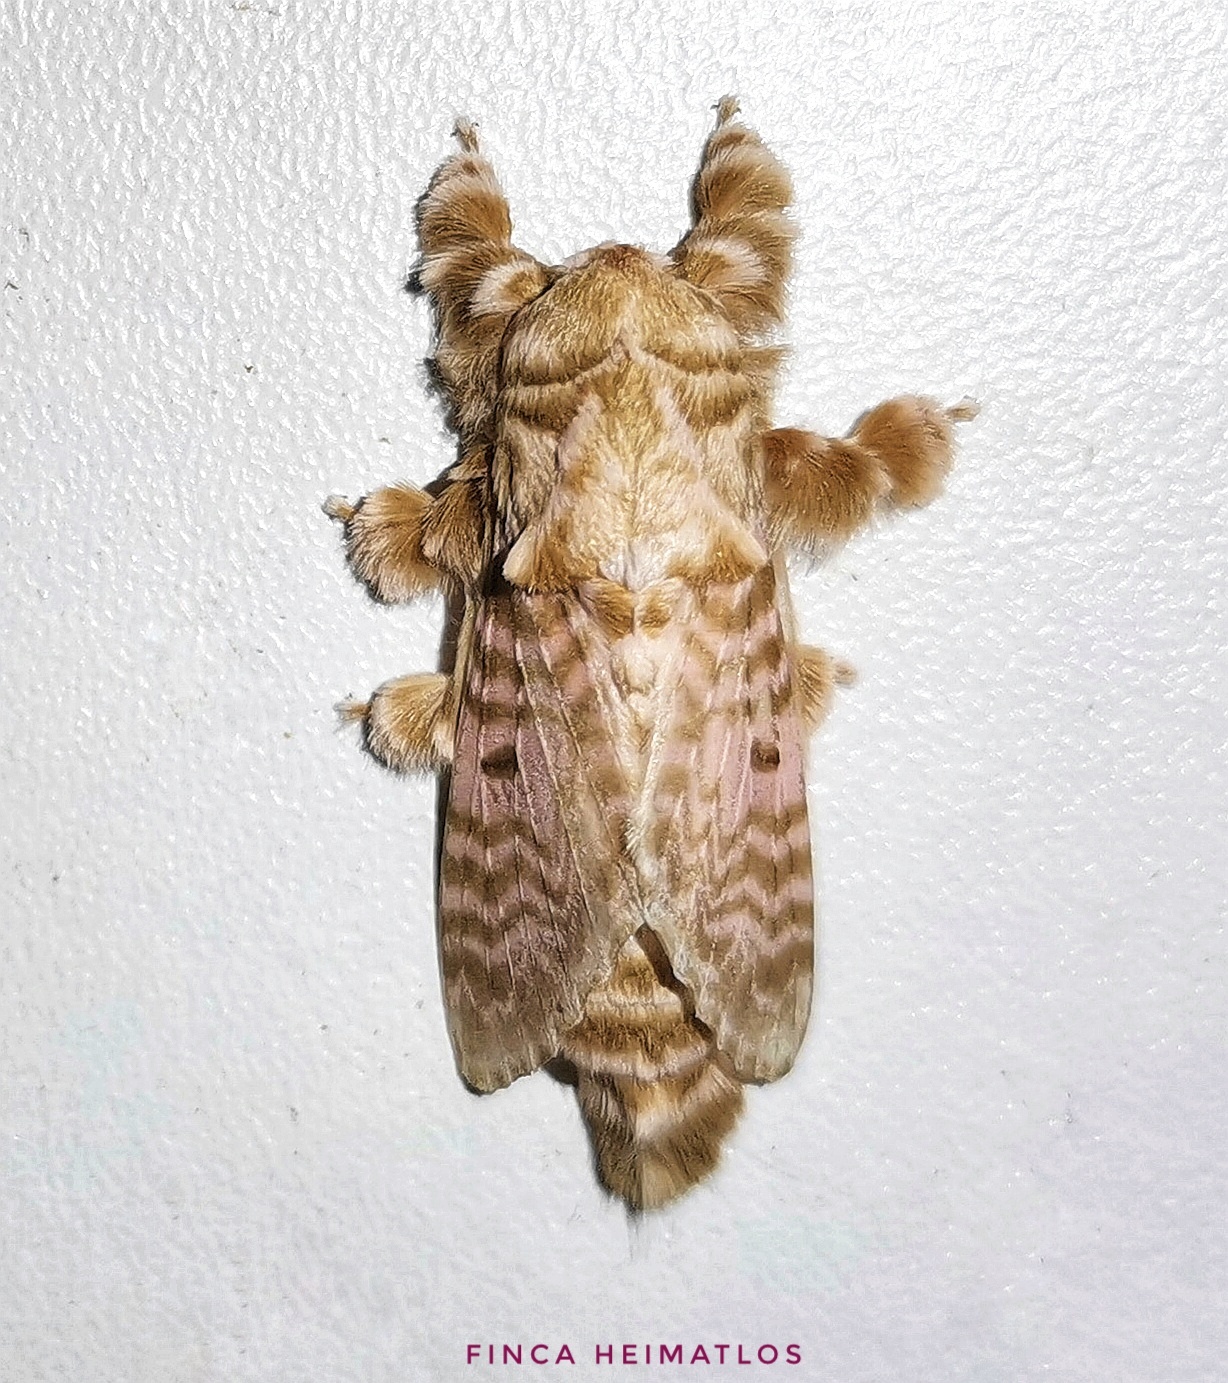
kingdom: Animalia
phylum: Arthropoda
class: Insecta
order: Lepidoptera
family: Lasiocampidae
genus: Tytocha
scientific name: Tytocha lineata
